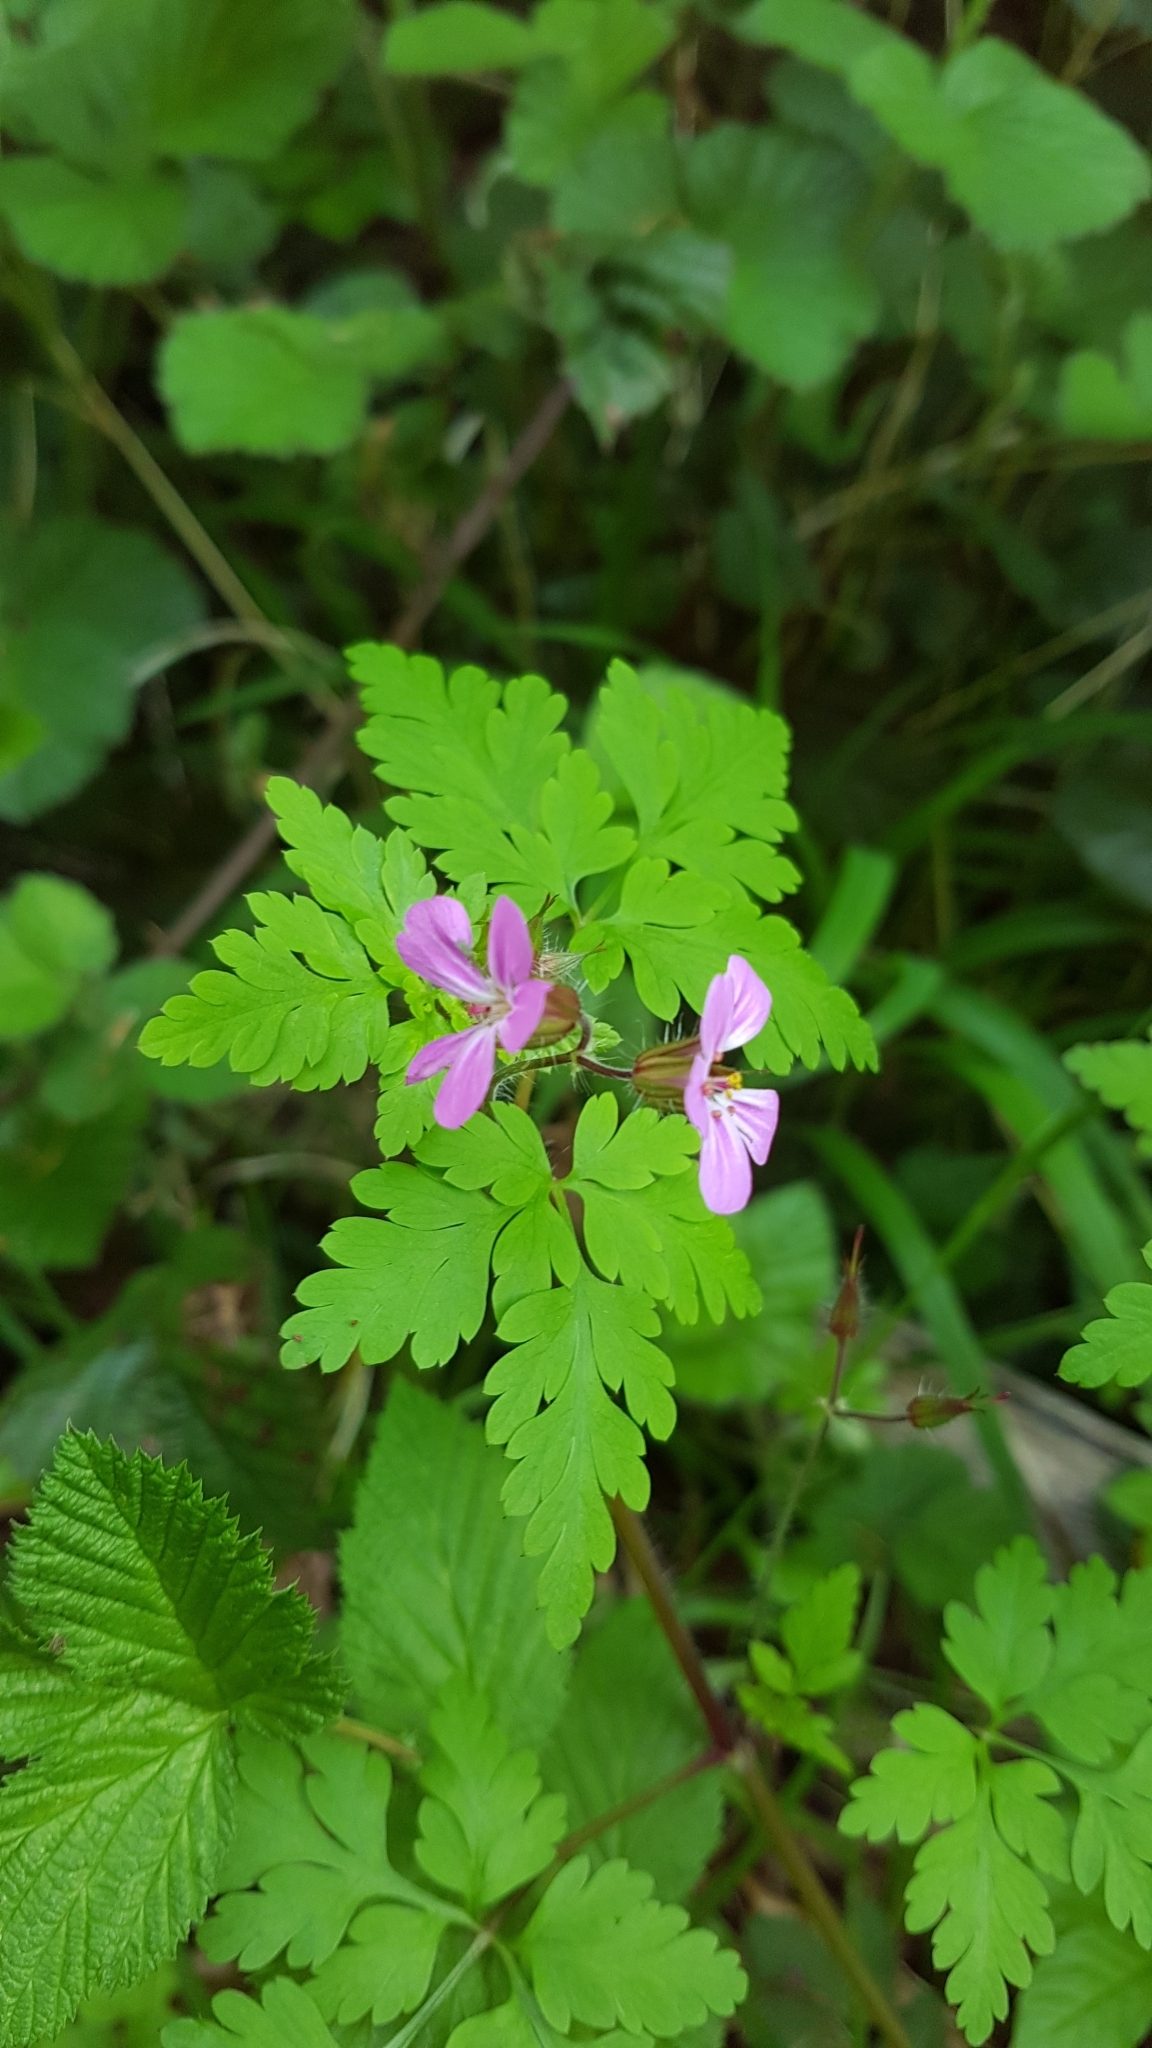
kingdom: Plantae
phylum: Tracheophyta
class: Magnoliopsida
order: Geraniales
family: Geraniaceae
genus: Geranium
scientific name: Geranium robertianum
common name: Herb-robert
